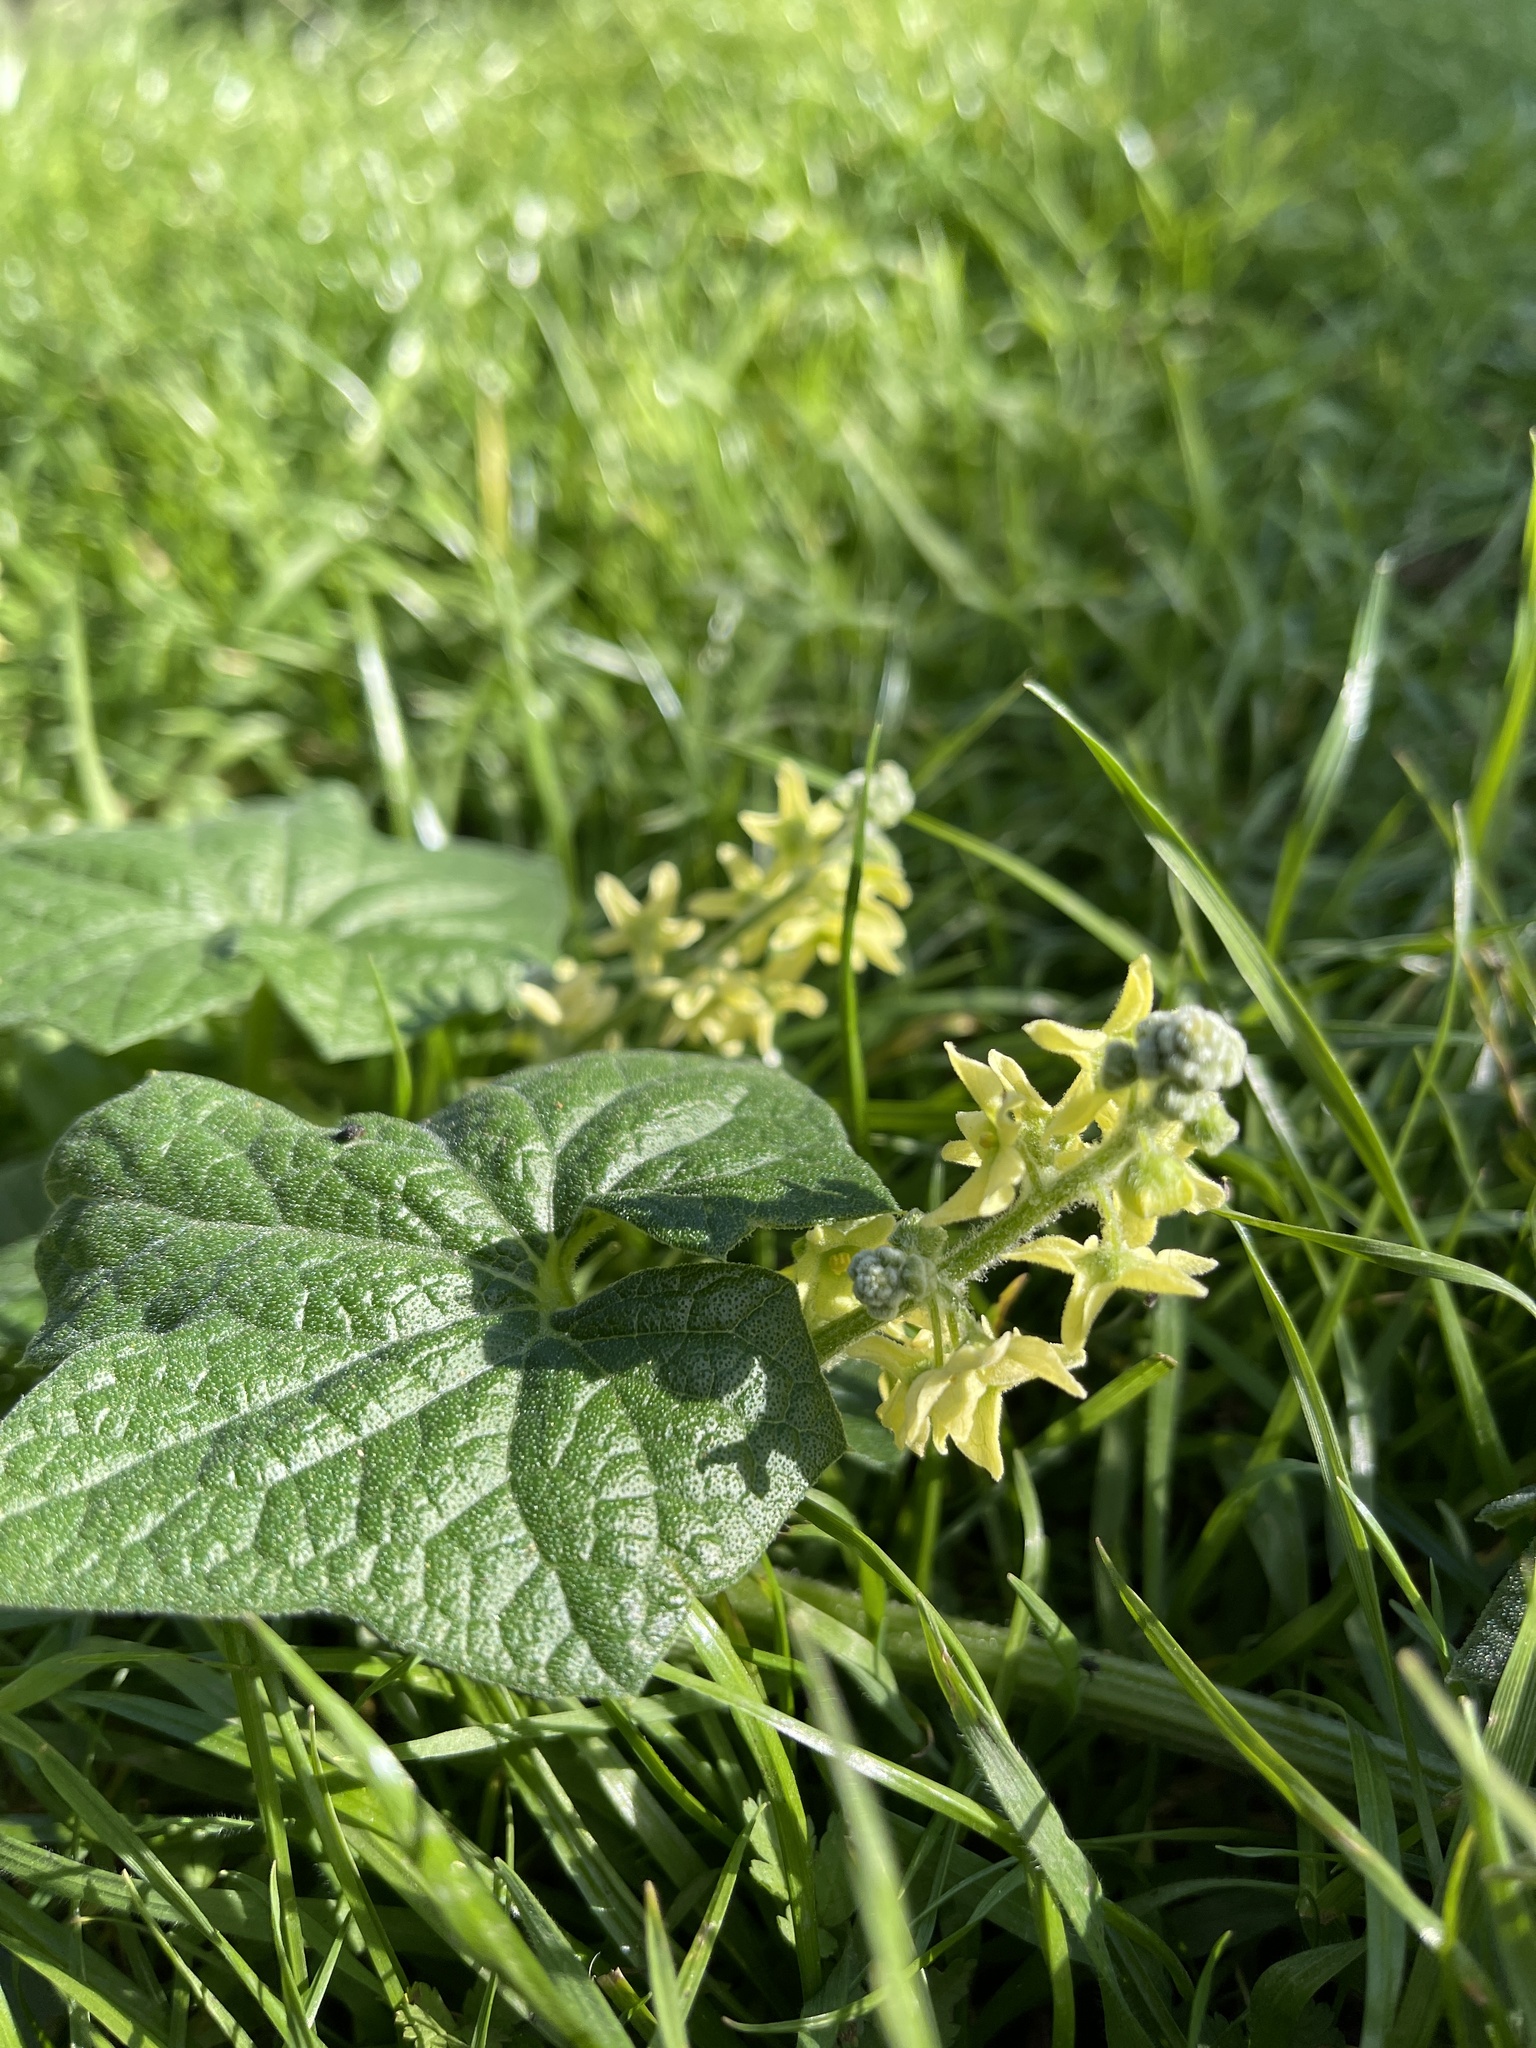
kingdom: Plantae
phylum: Tracheophyta
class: Magnoliopsida
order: Cucurbitales
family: Cucurbitaceae
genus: Marah
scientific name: Marah fabacea
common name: California manroot
